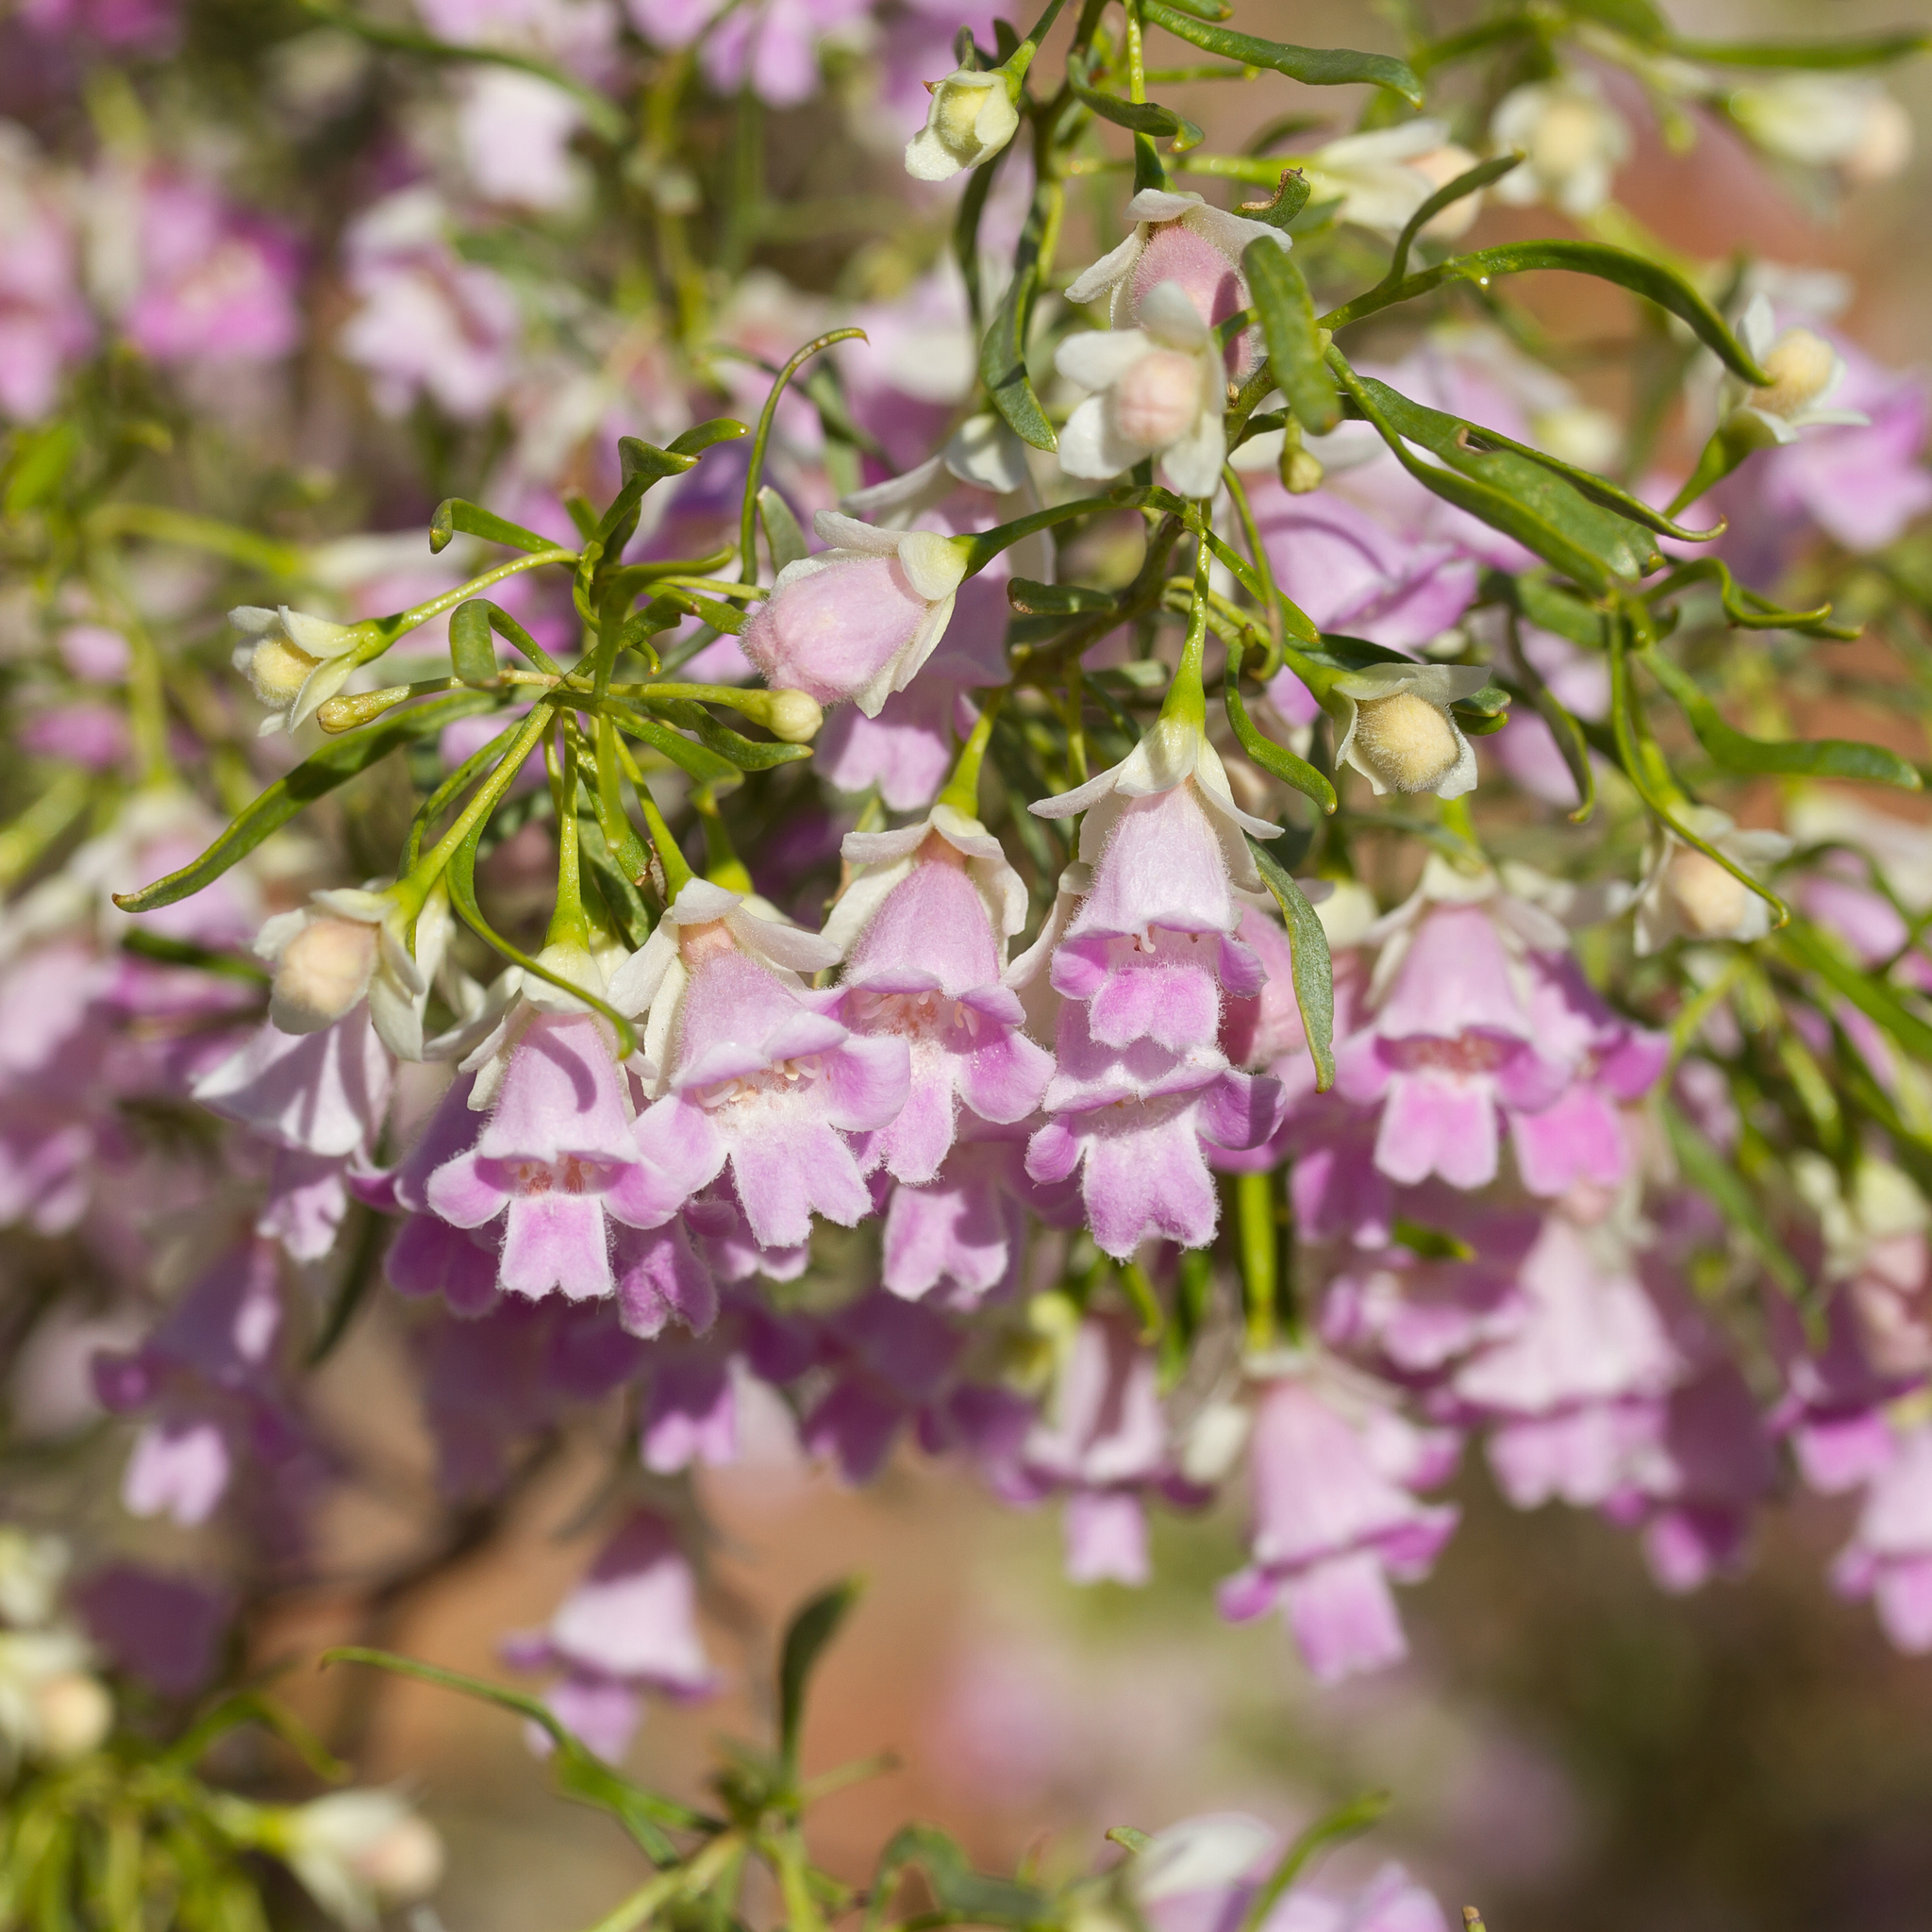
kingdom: Plantae
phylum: Tracheophyta
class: Magnoliopsida
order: Lamiales
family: Scrophulariaceae
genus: Eremophila
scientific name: Eremophila sturtii
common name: Narrow-leaf emubush
